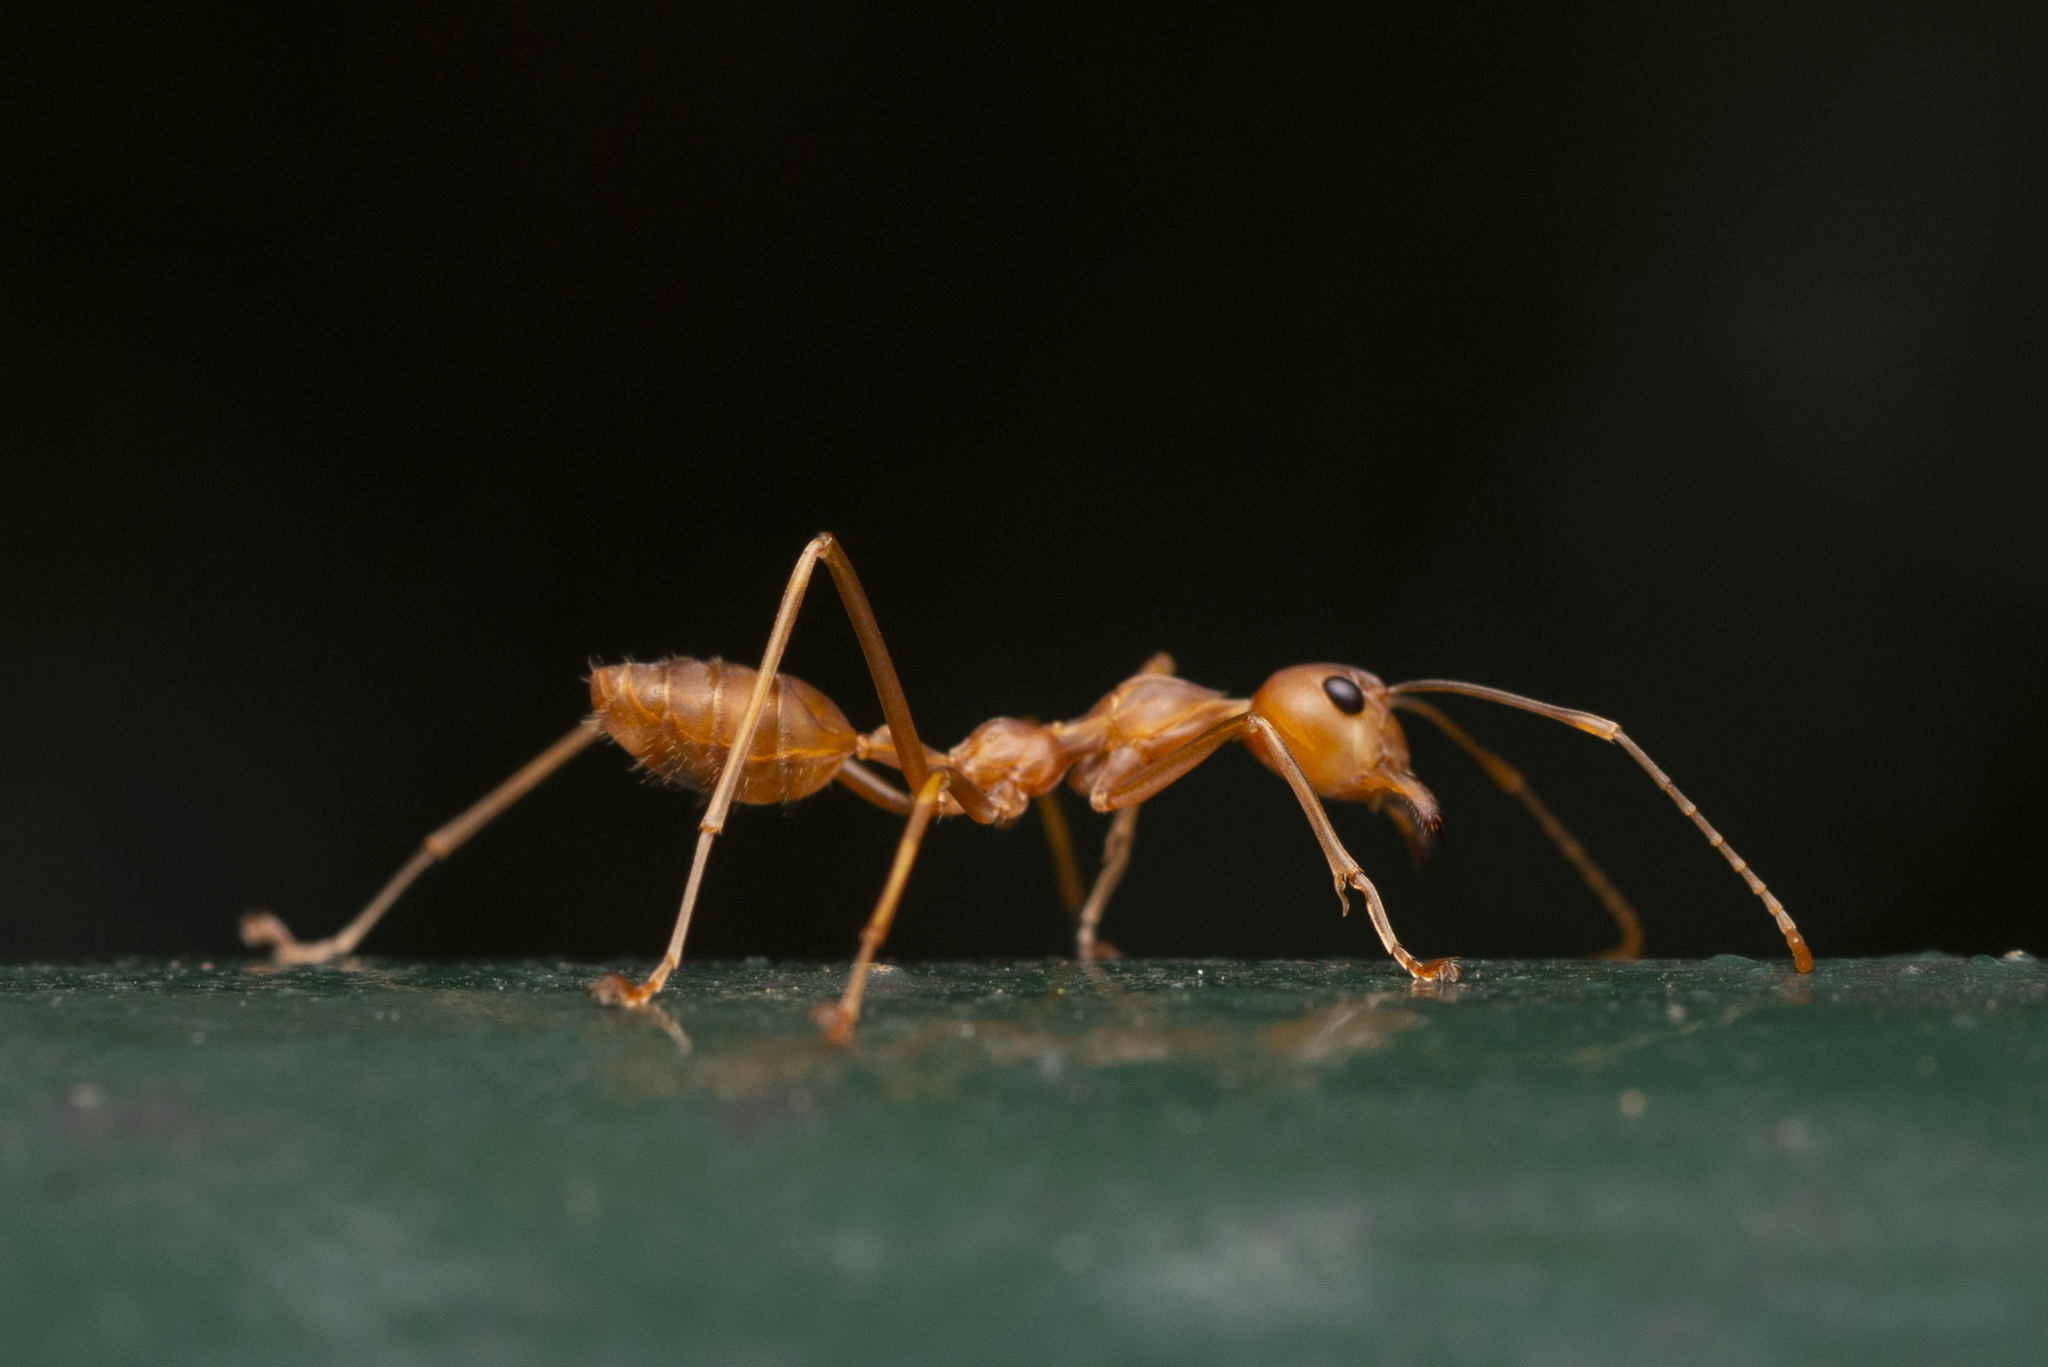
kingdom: Animalia
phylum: Arthropoda
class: Insecta
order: Hymenoptera
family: Formicidae
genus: Oecophylla
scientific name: Oecophylla smaragdina
